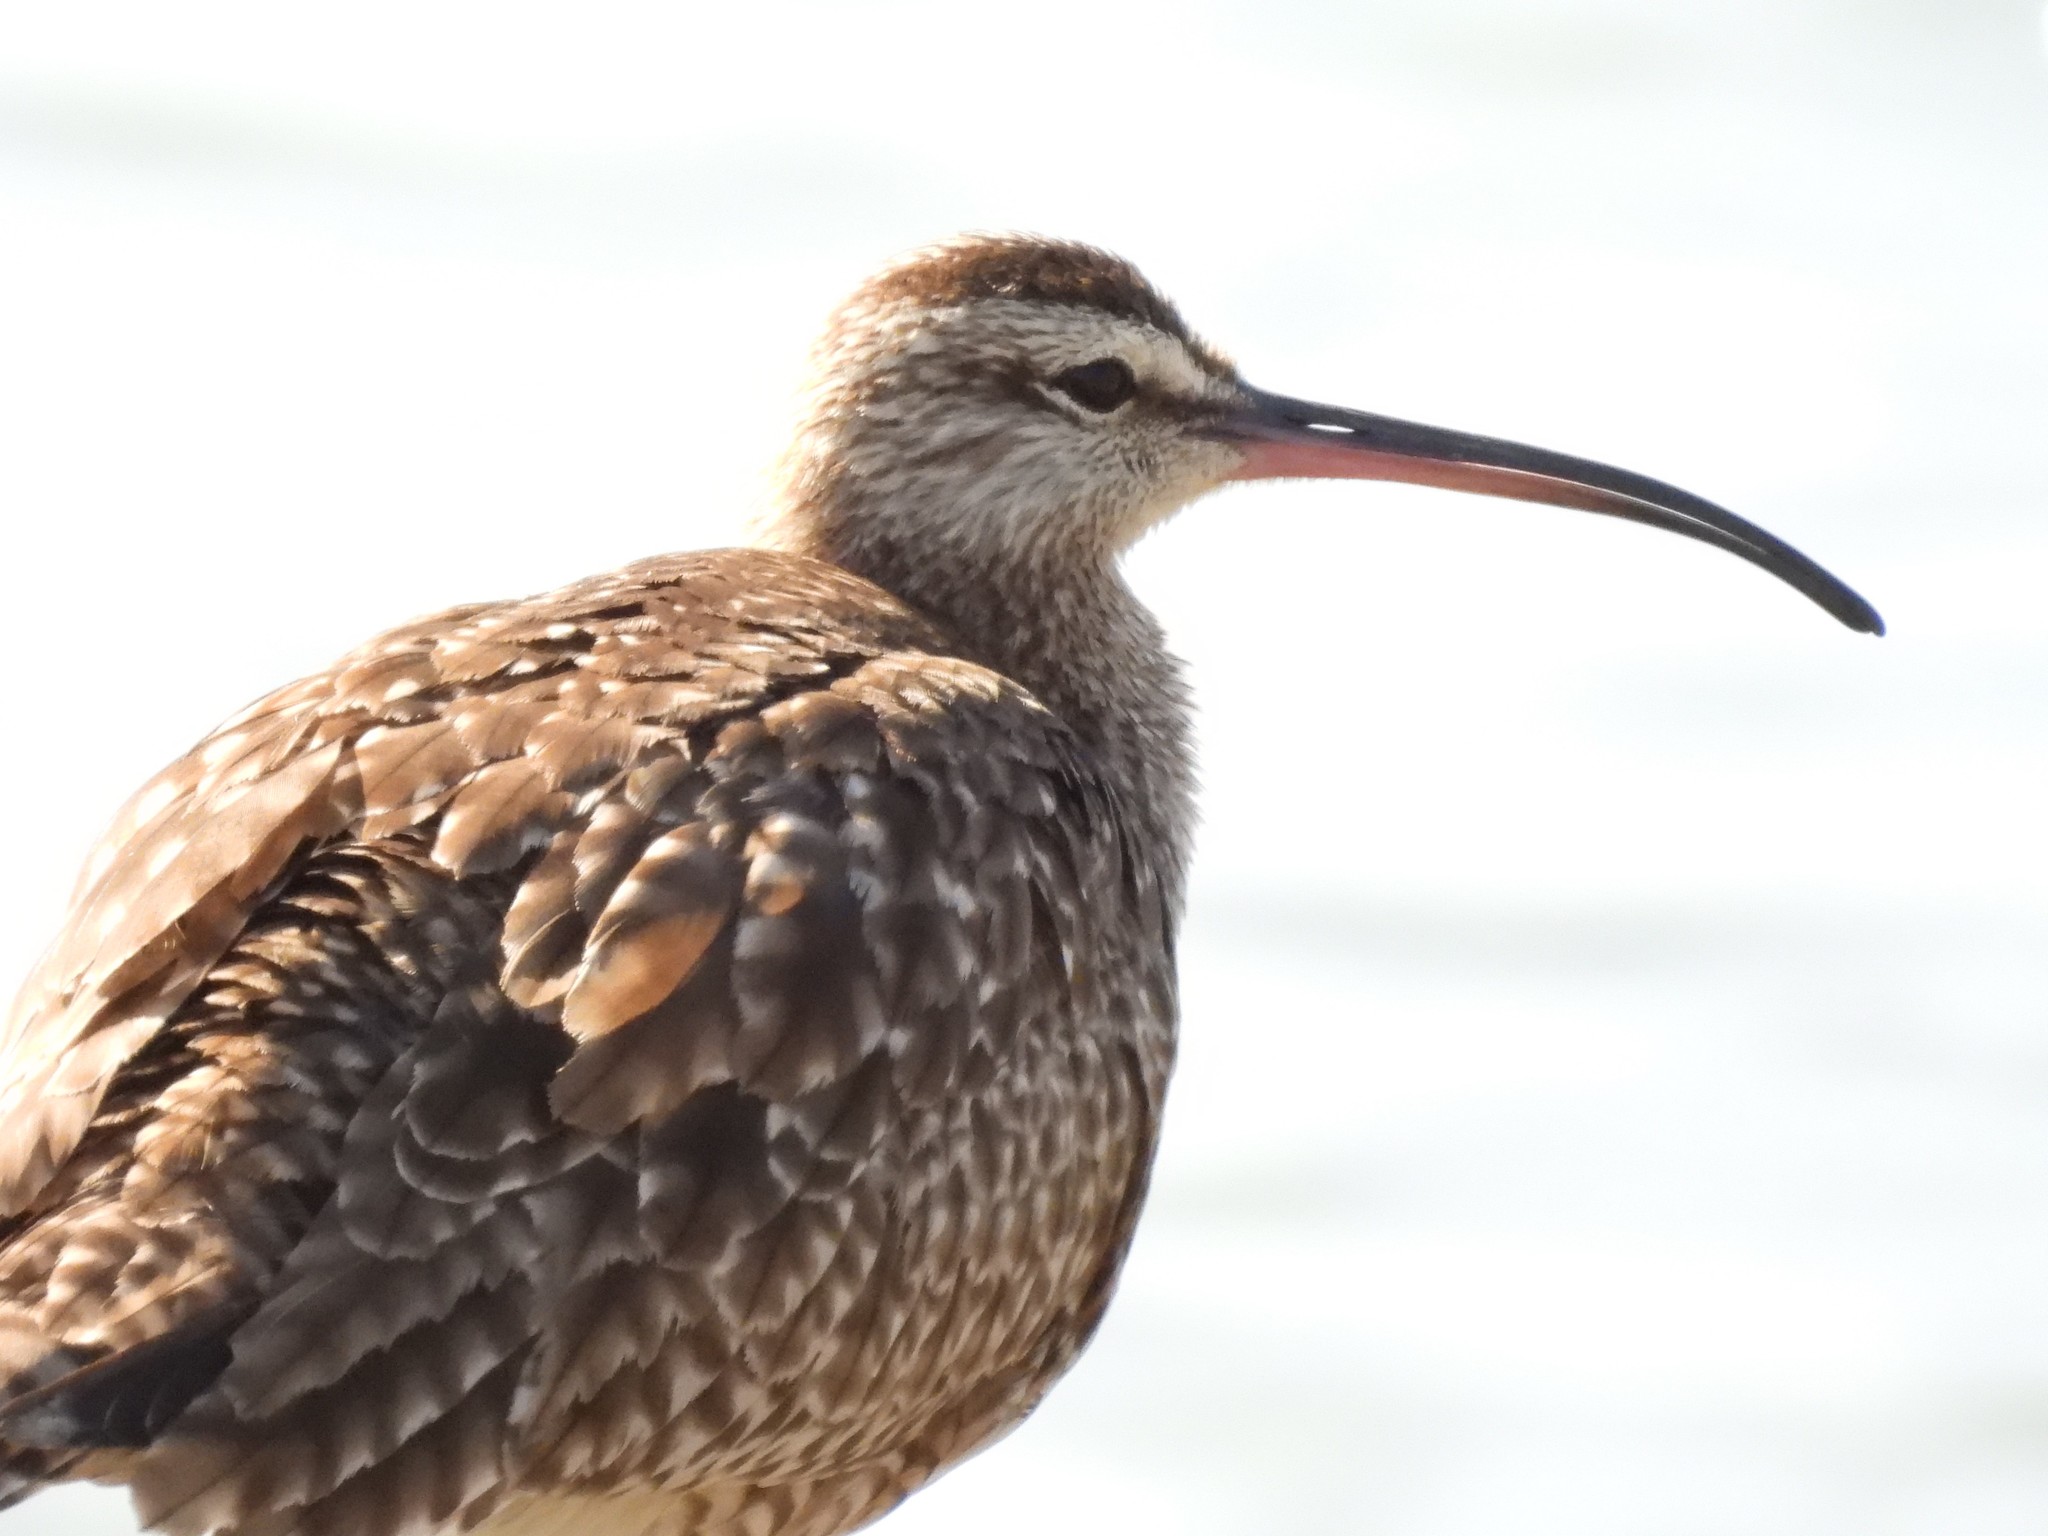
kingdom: Animalia
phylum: Chordata
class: Aves
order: Charadriiformes
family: Scolopacidae
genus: Numenius
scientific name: Numenius phaeopus
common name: Whimbrel
